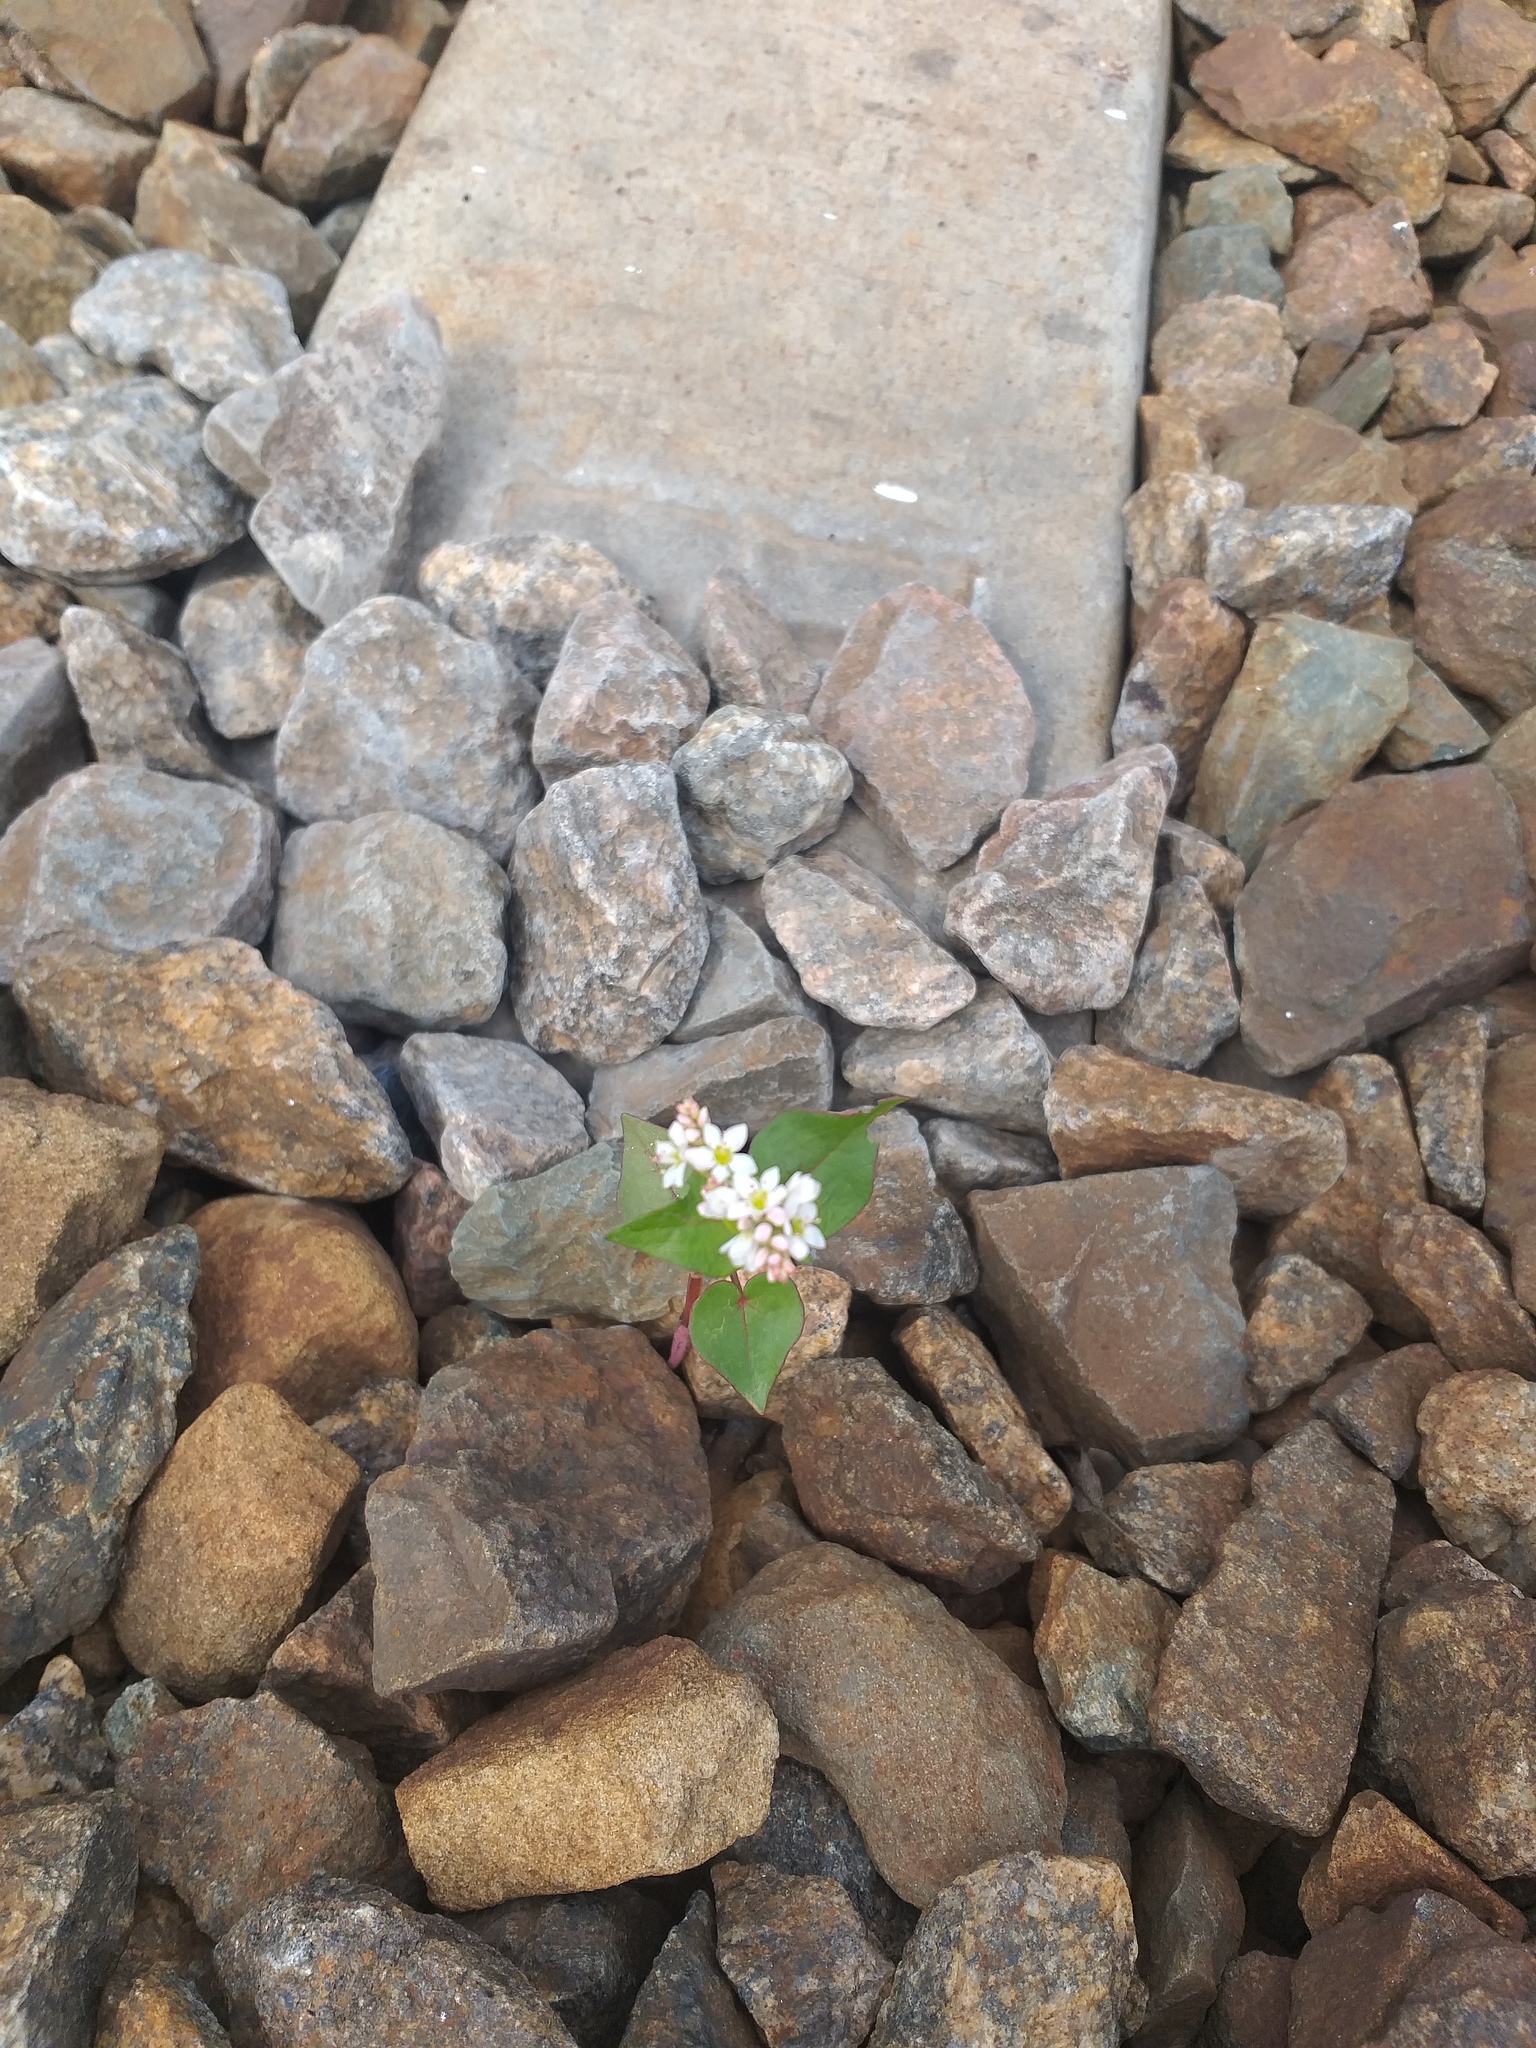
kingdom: Plantae
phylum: Tracheophyta
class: Magnoliopsida
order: Caryophyllales
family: Polygonaceae
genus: Fagopyrum
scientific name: Fagopyrum esculentum
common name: Buckwheat
